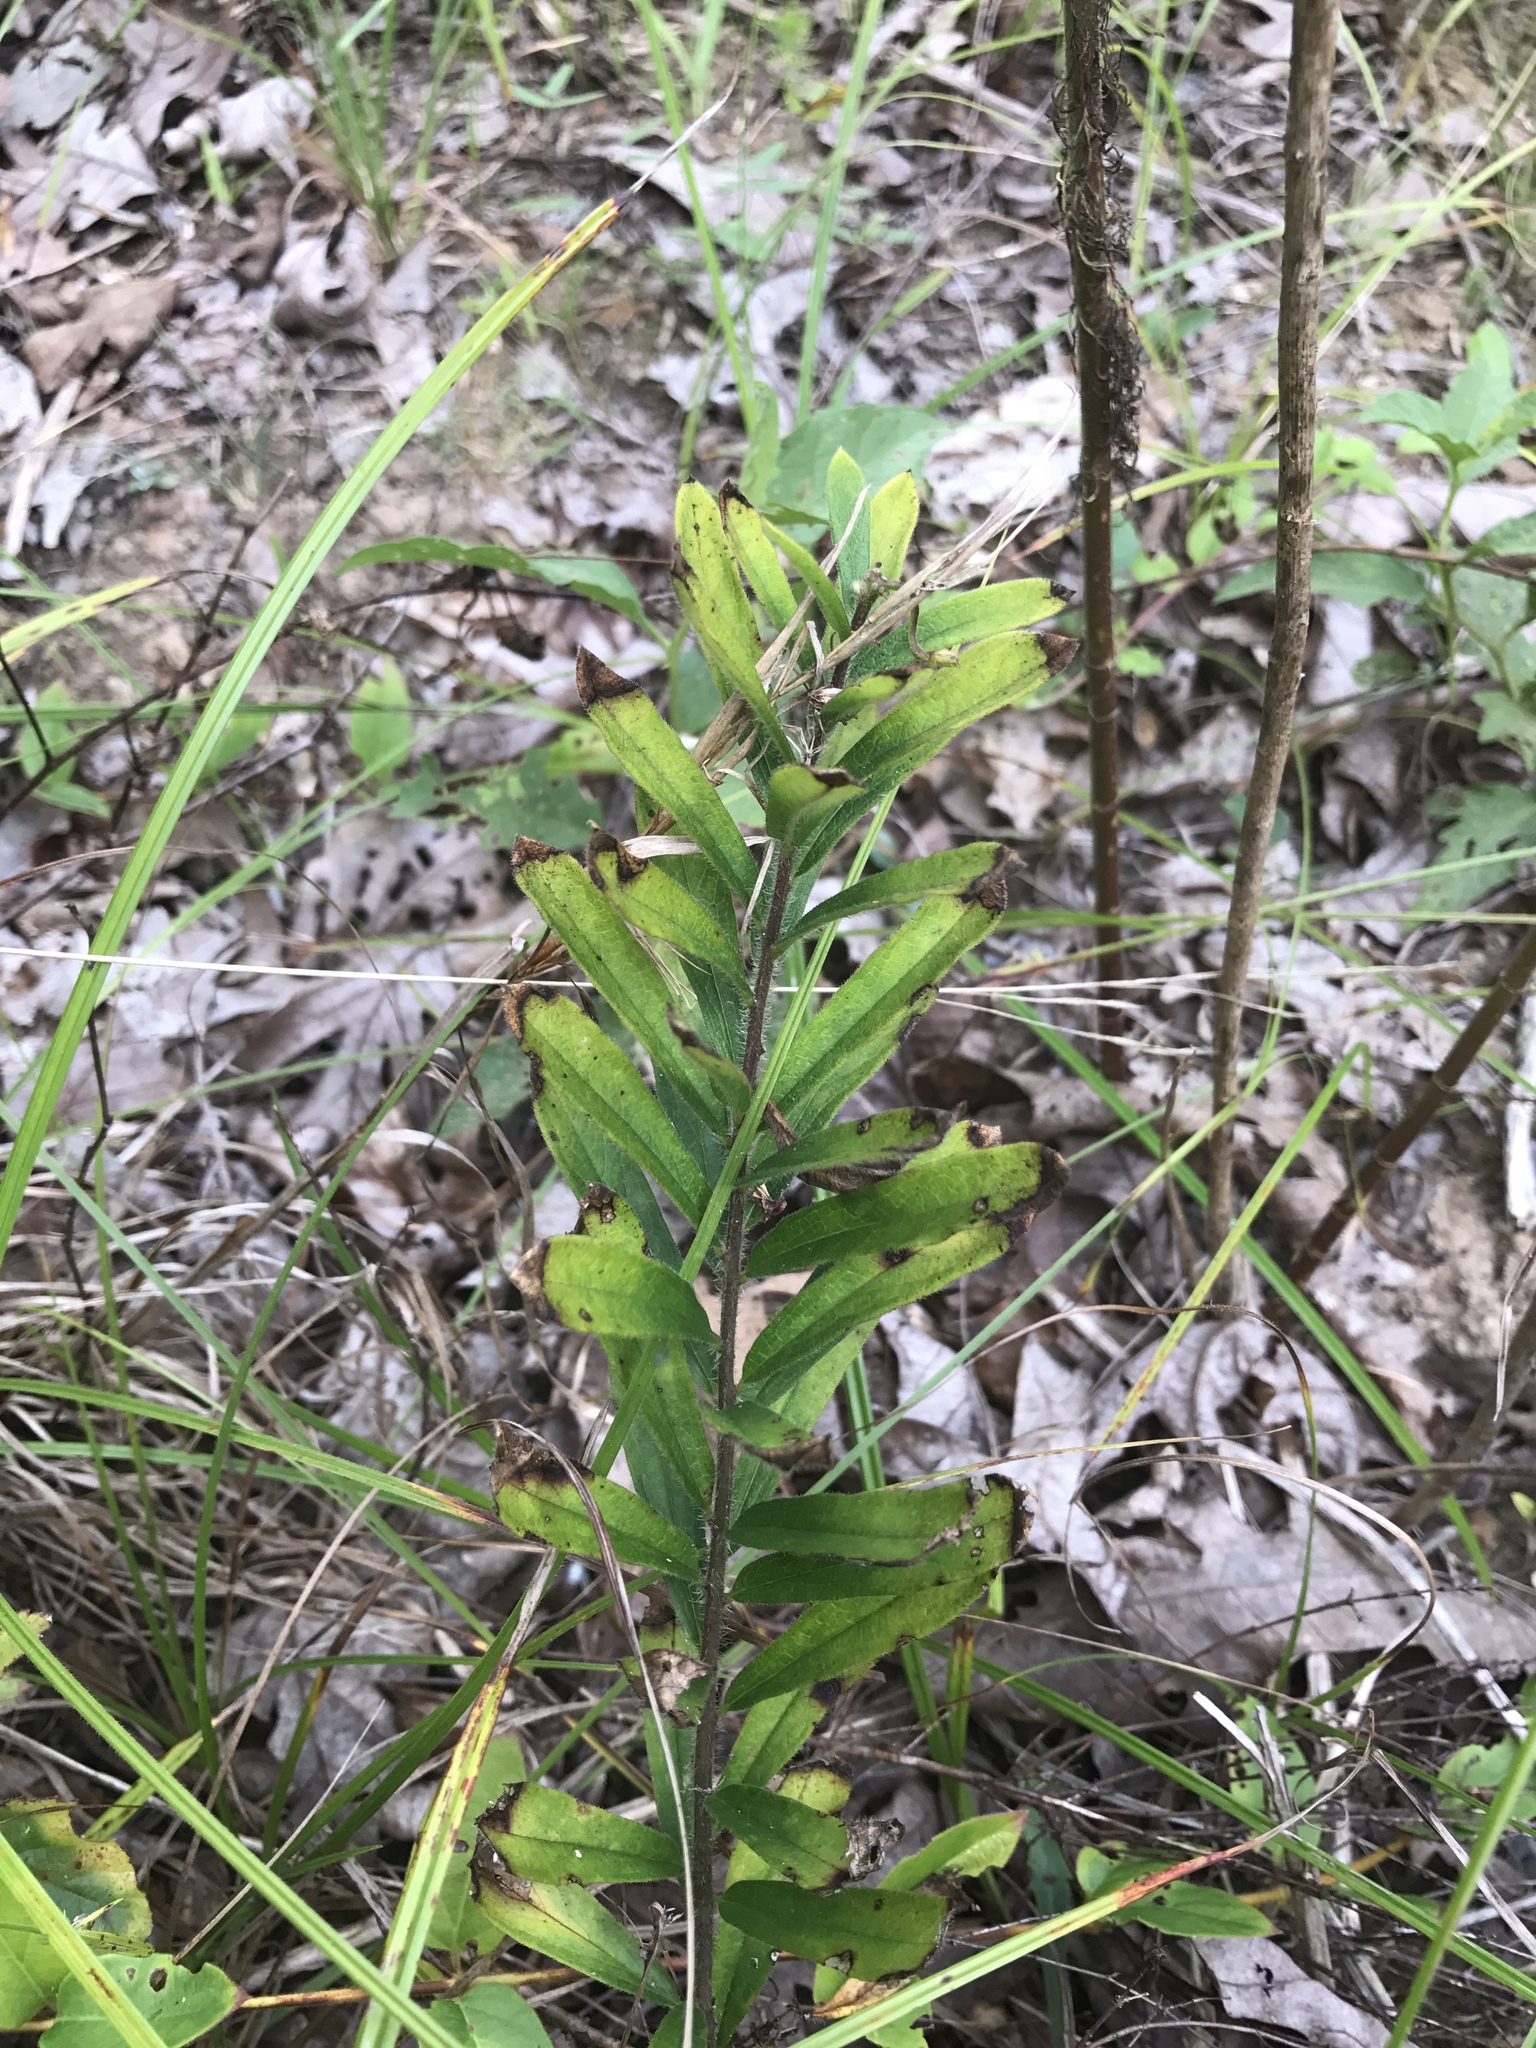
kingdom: Plantae
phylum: Tracheophyta
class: Magnoliopsida
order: Gentianales
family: Apocynaceae
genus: Asclepias
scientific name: Asclepias tuberosa
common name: Butterfly milkweed
